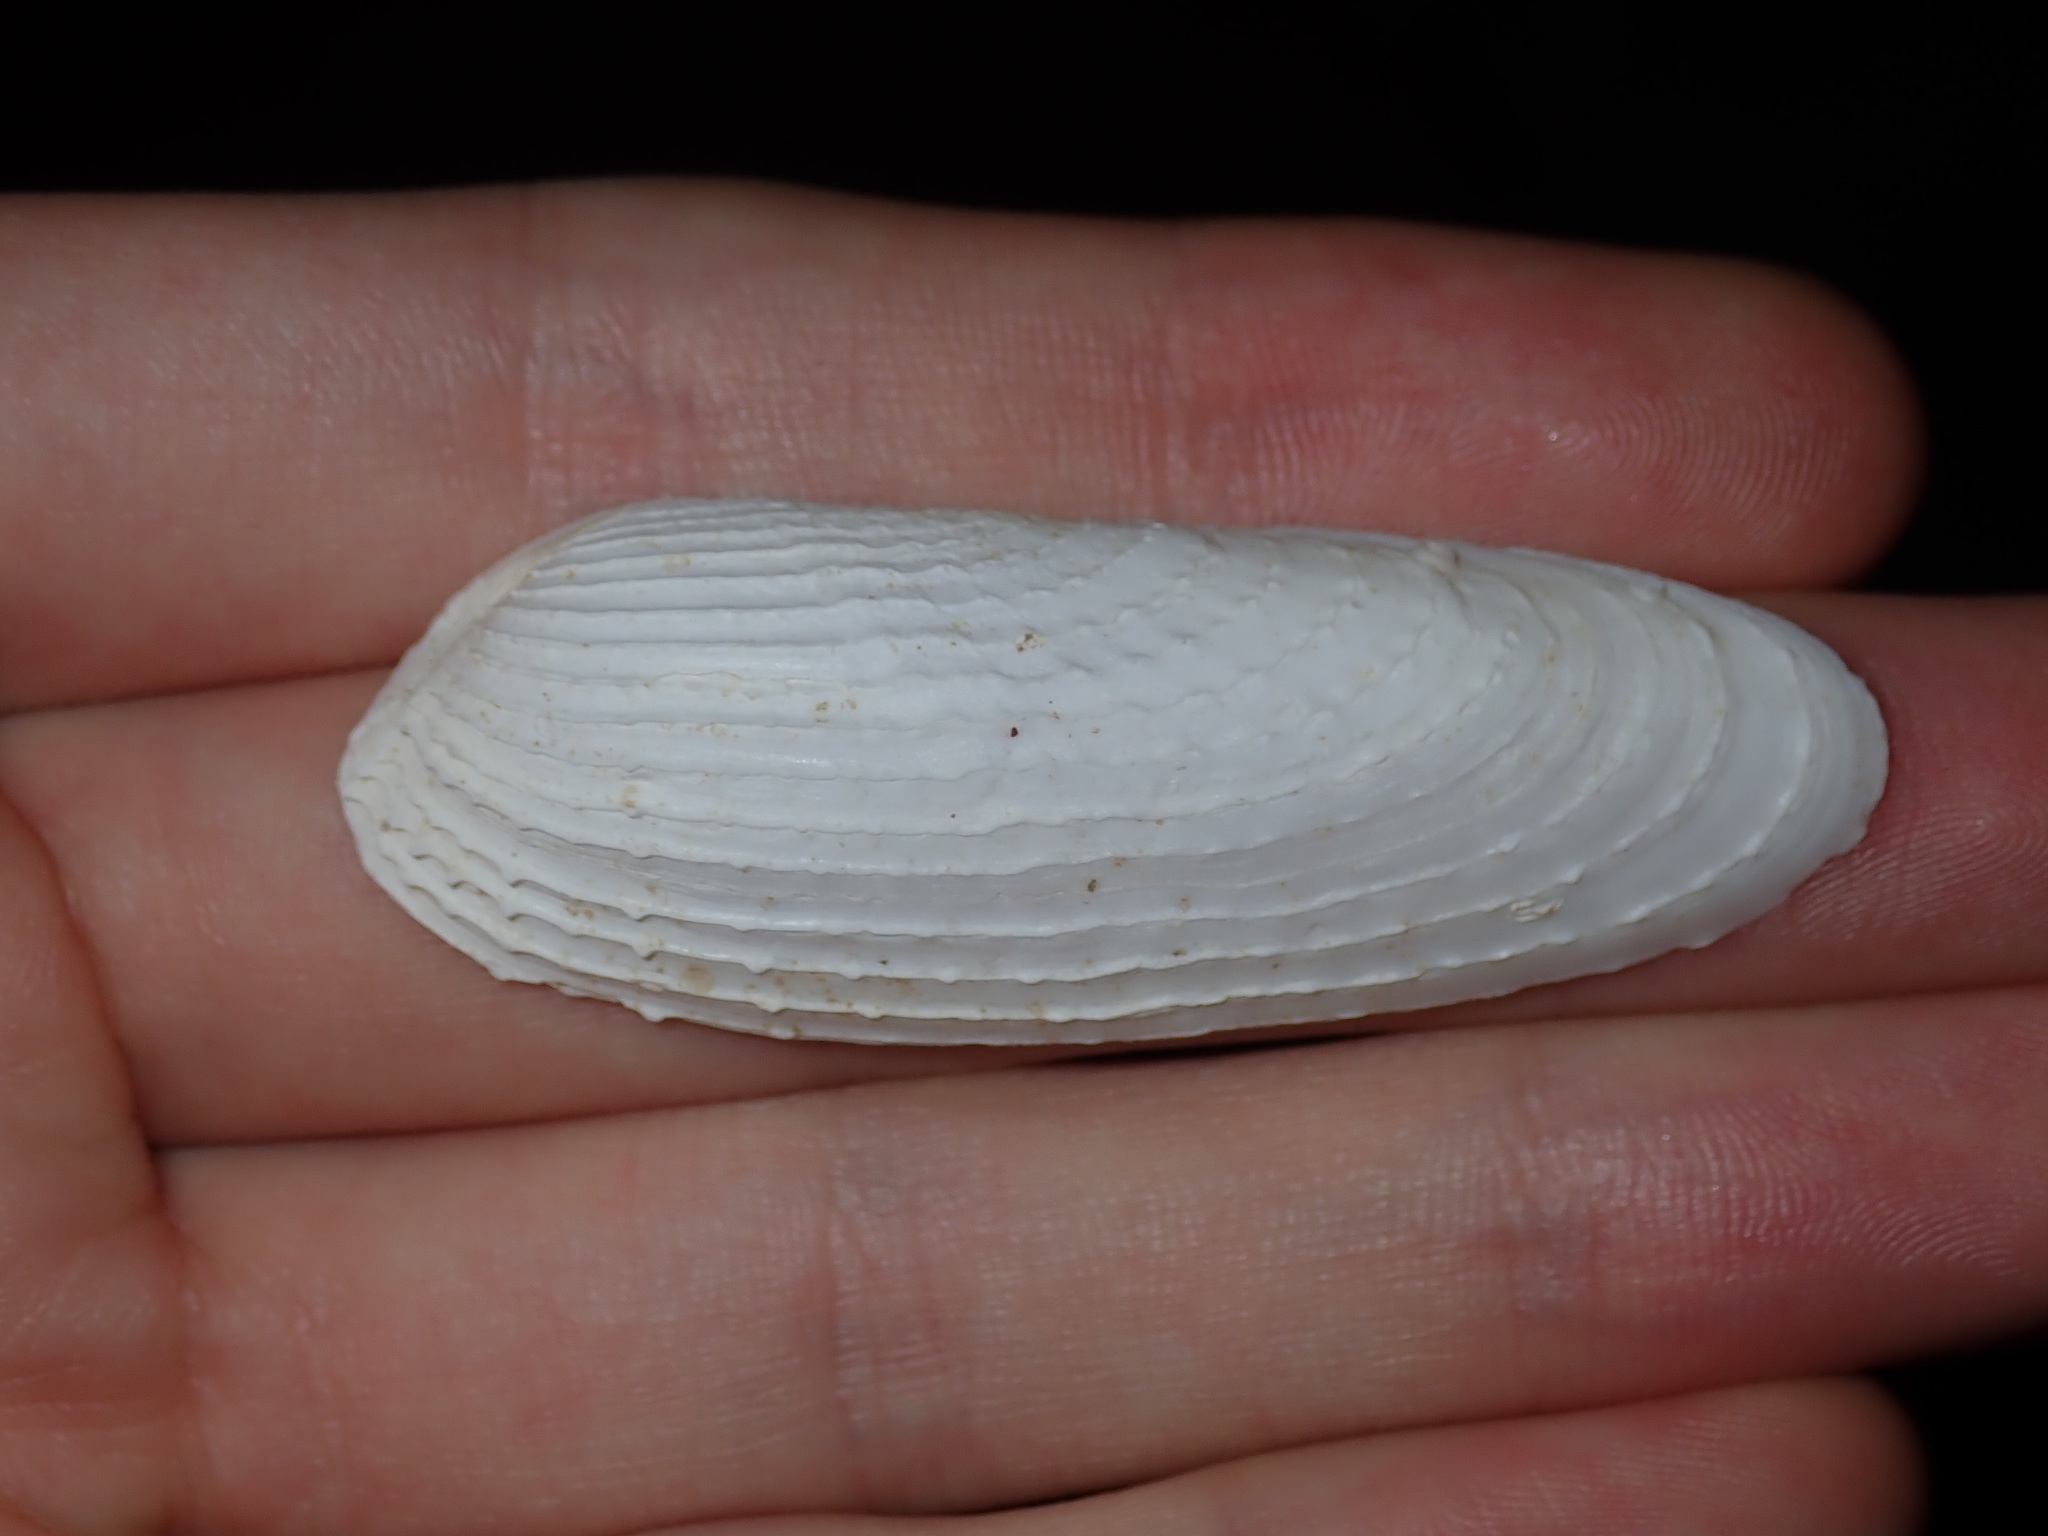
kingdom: Animalia
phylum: Mollusca
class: Bivalvia
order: Myida
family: Pholadidae
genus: Barnea
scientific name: Barnea australasiae
